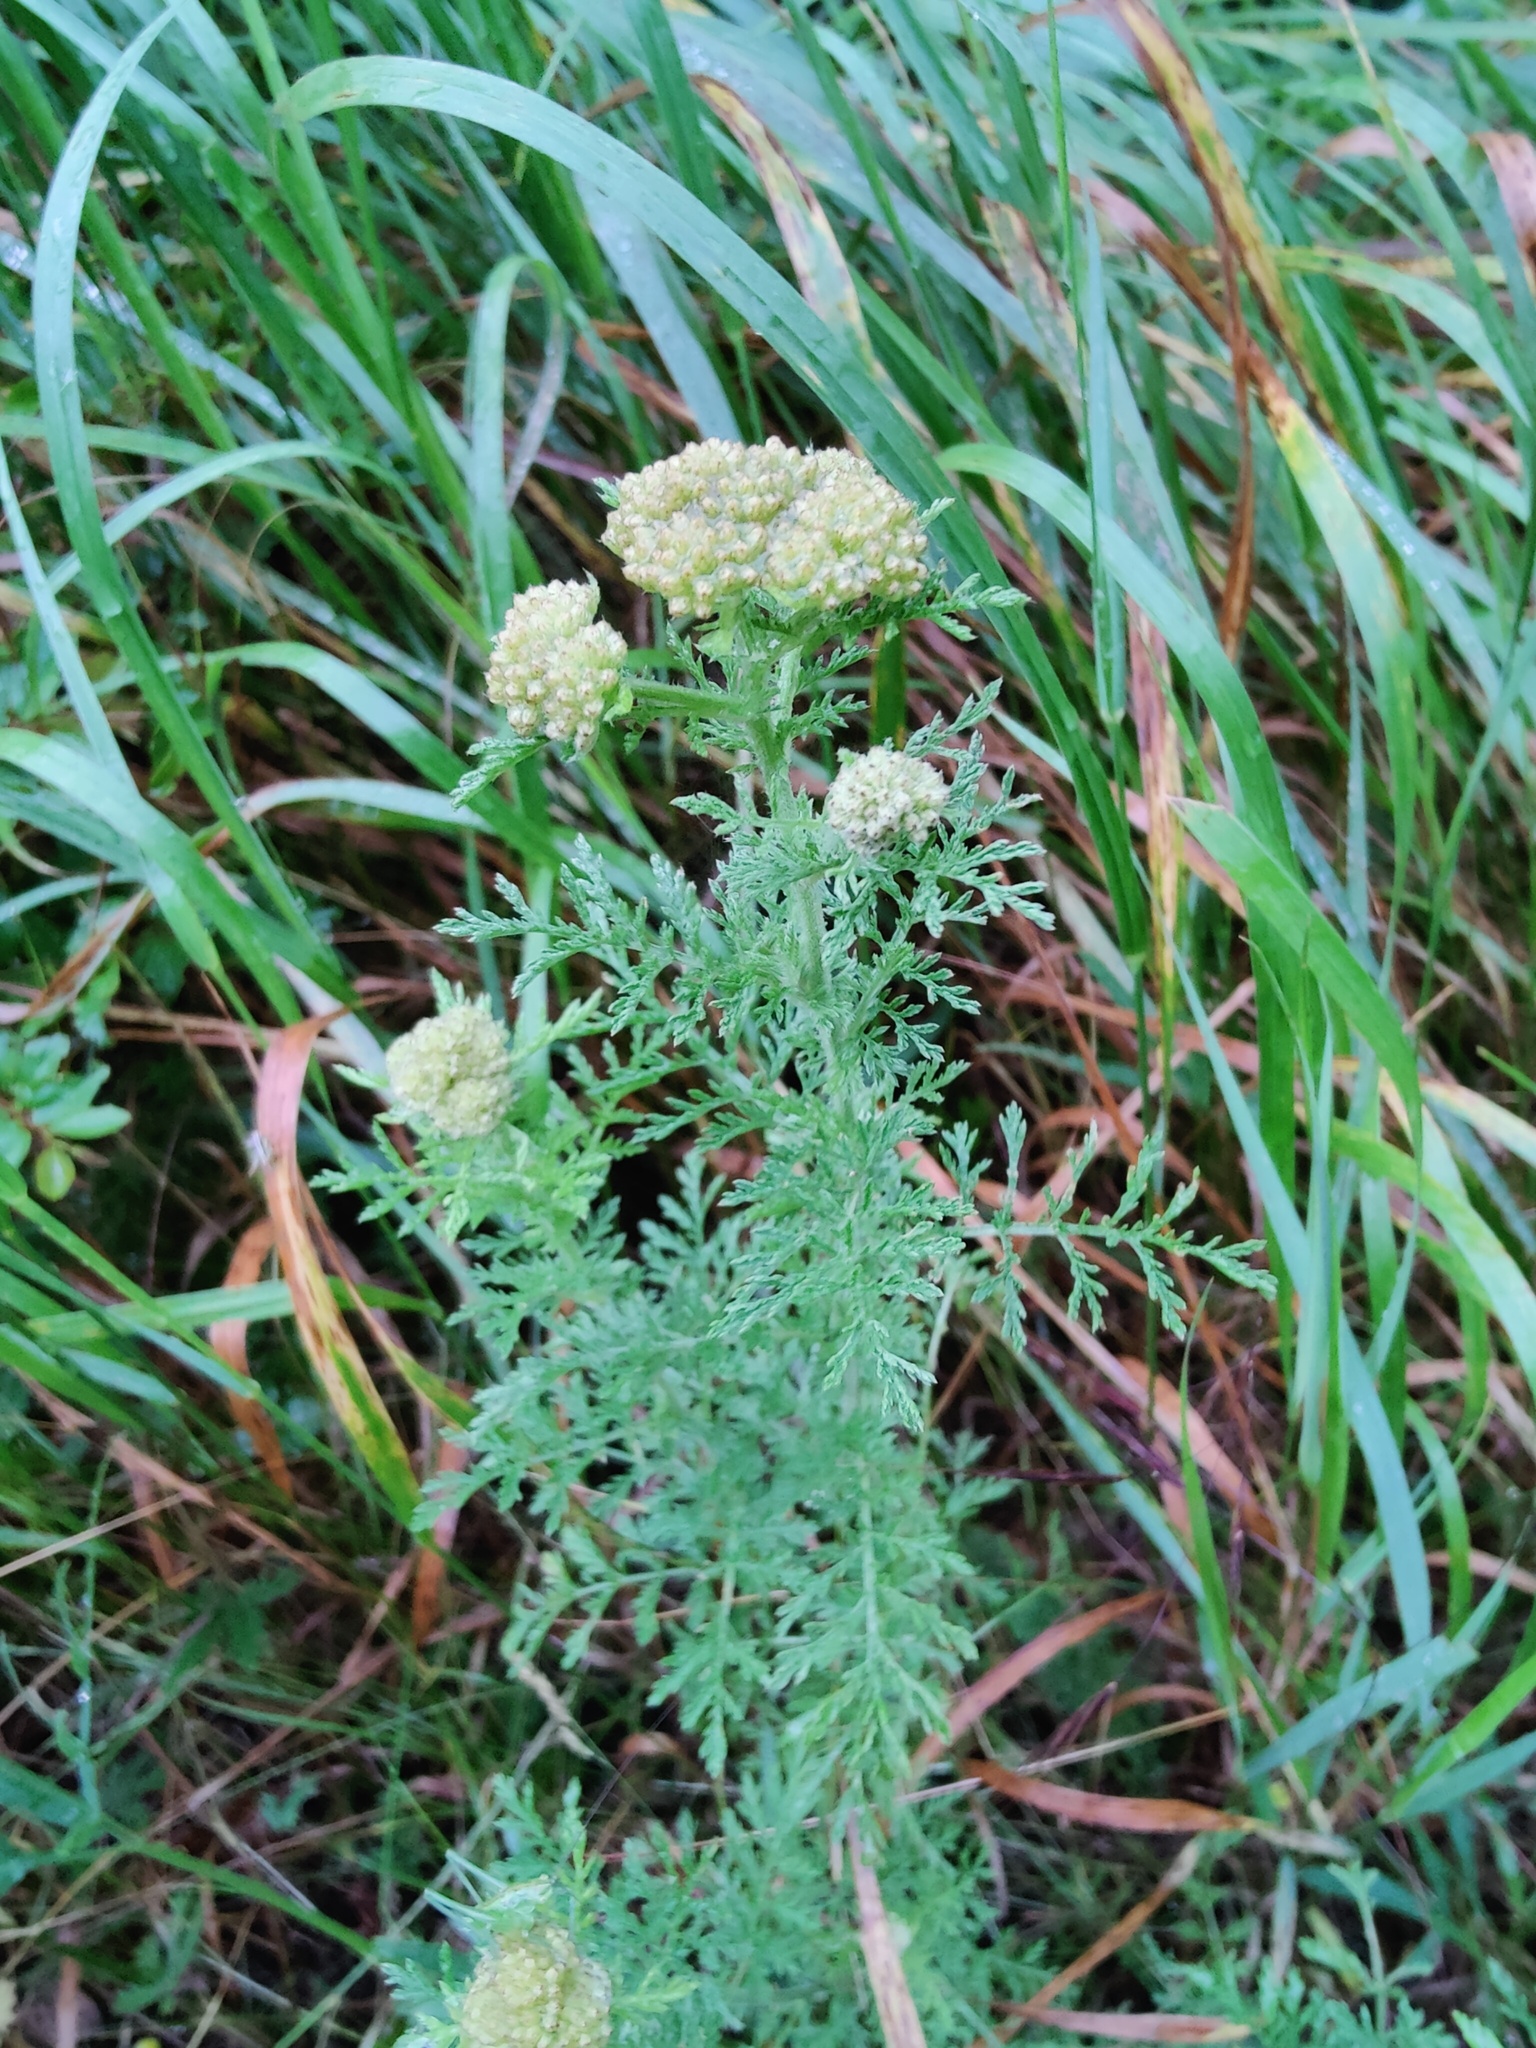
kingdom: Plantae
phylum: Tracheophyta
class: Magnoliopsida
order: Asterales
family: Asteraceae
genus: Achillea
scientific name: Achillea nobilis
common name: Noble yarrow
